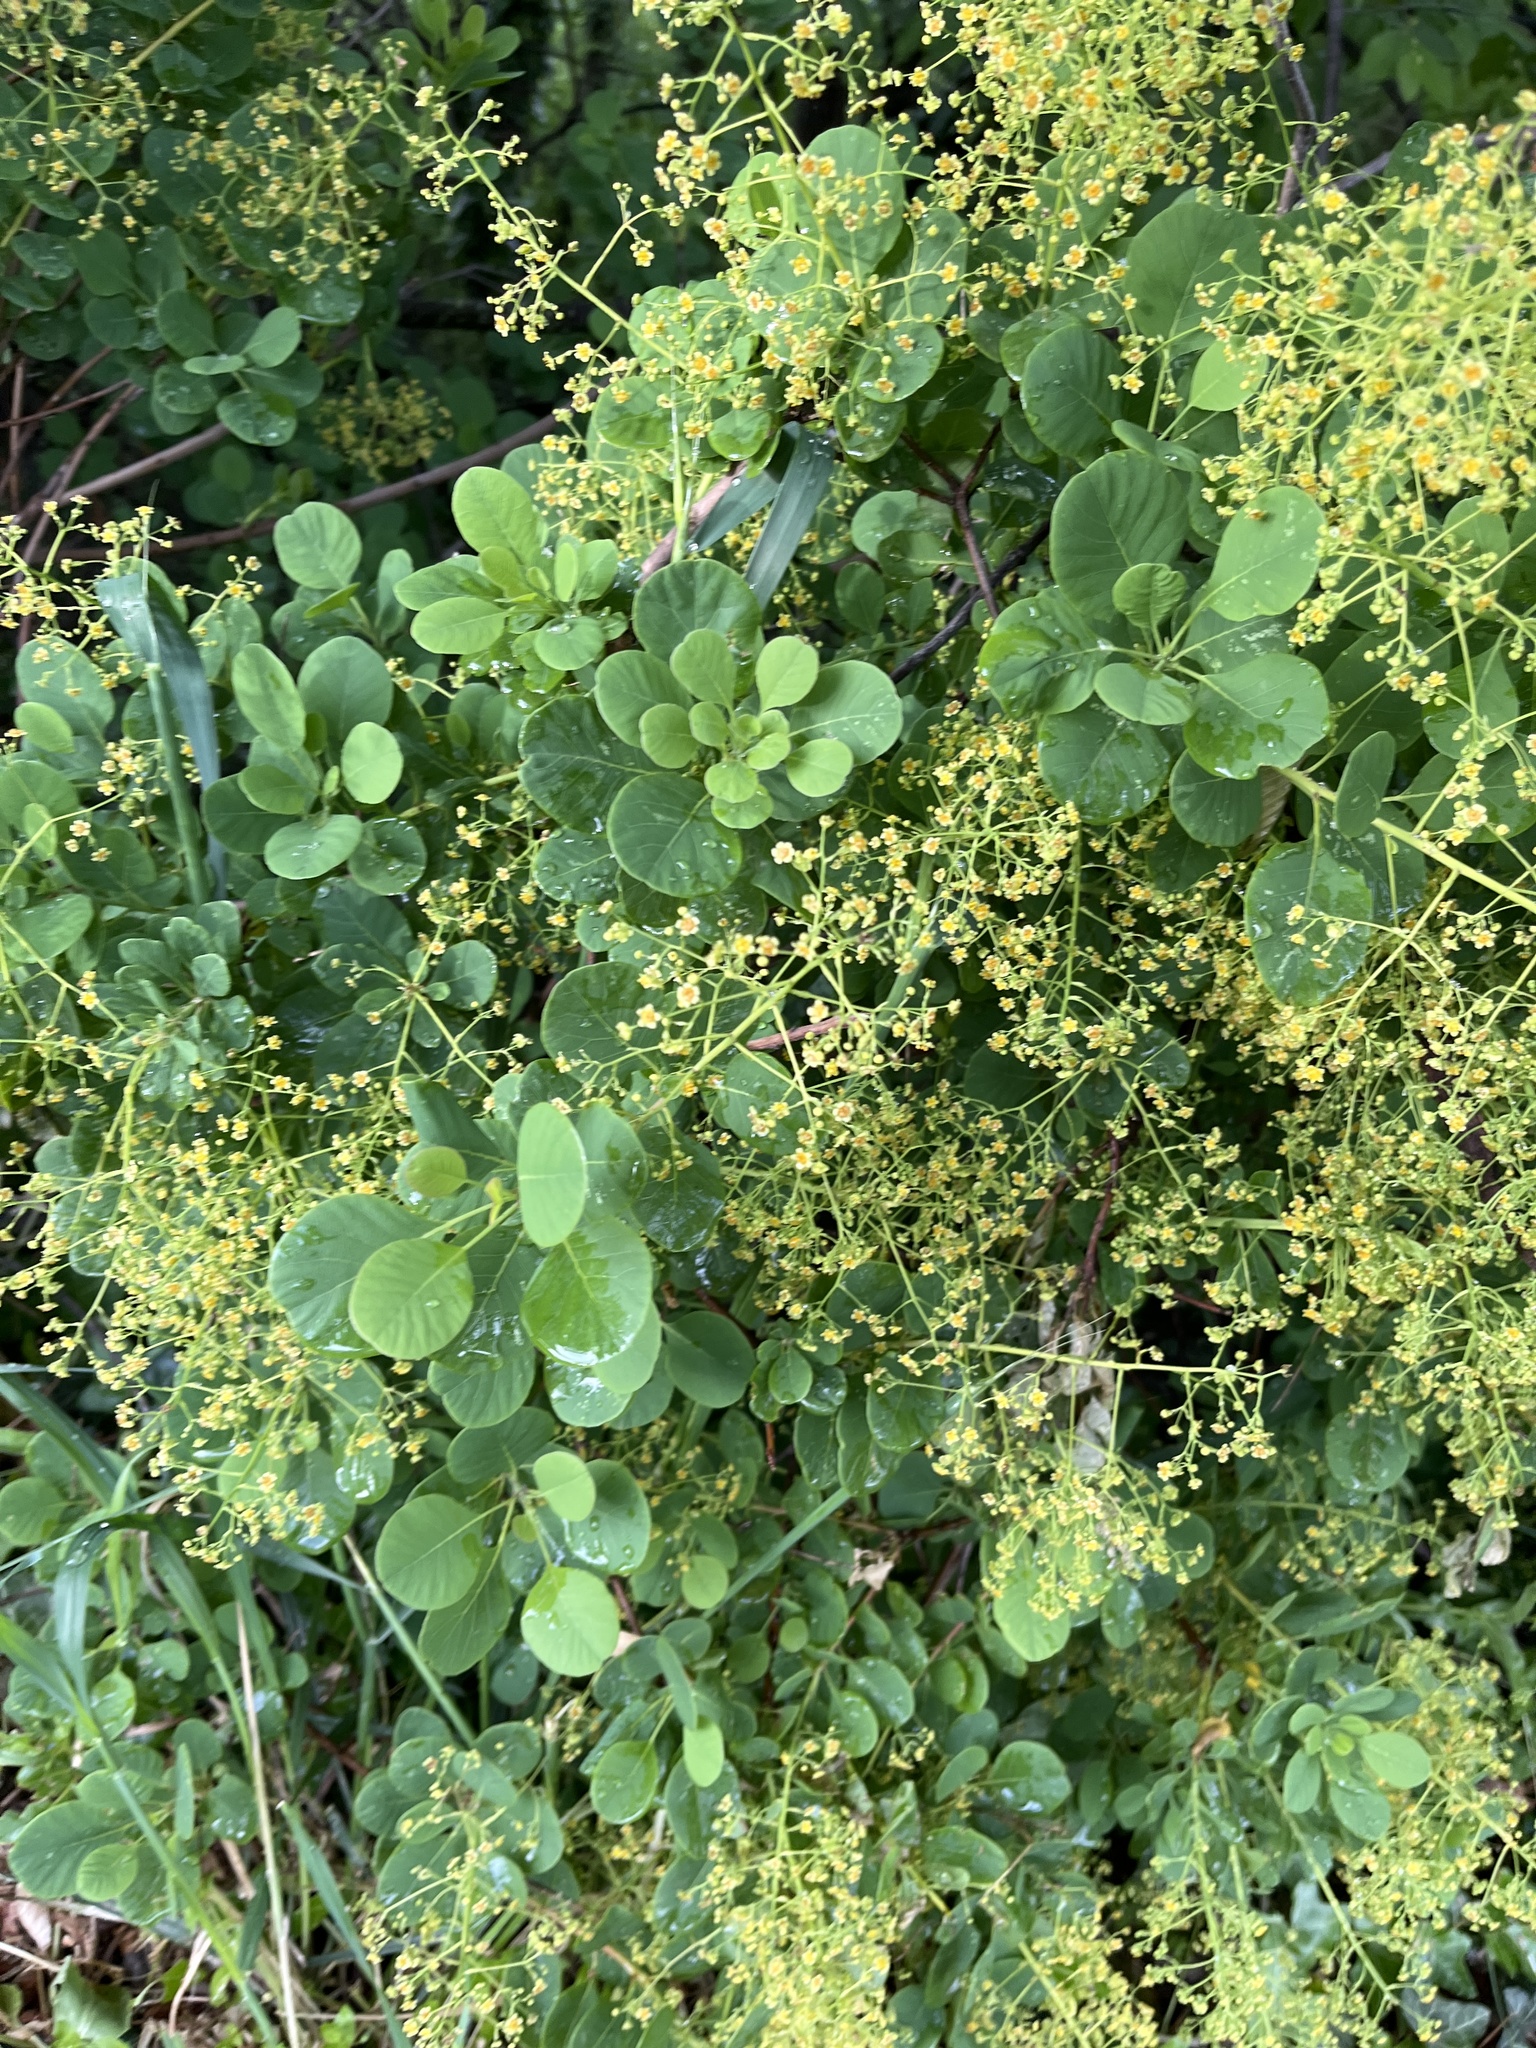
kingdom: Plantae
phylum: Tracheophyta
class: Magnoliopsida
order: Sapindales
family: Anacardiaceae
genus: Cotinus
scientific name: Cotinus coggygria
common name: Smoke-tree
